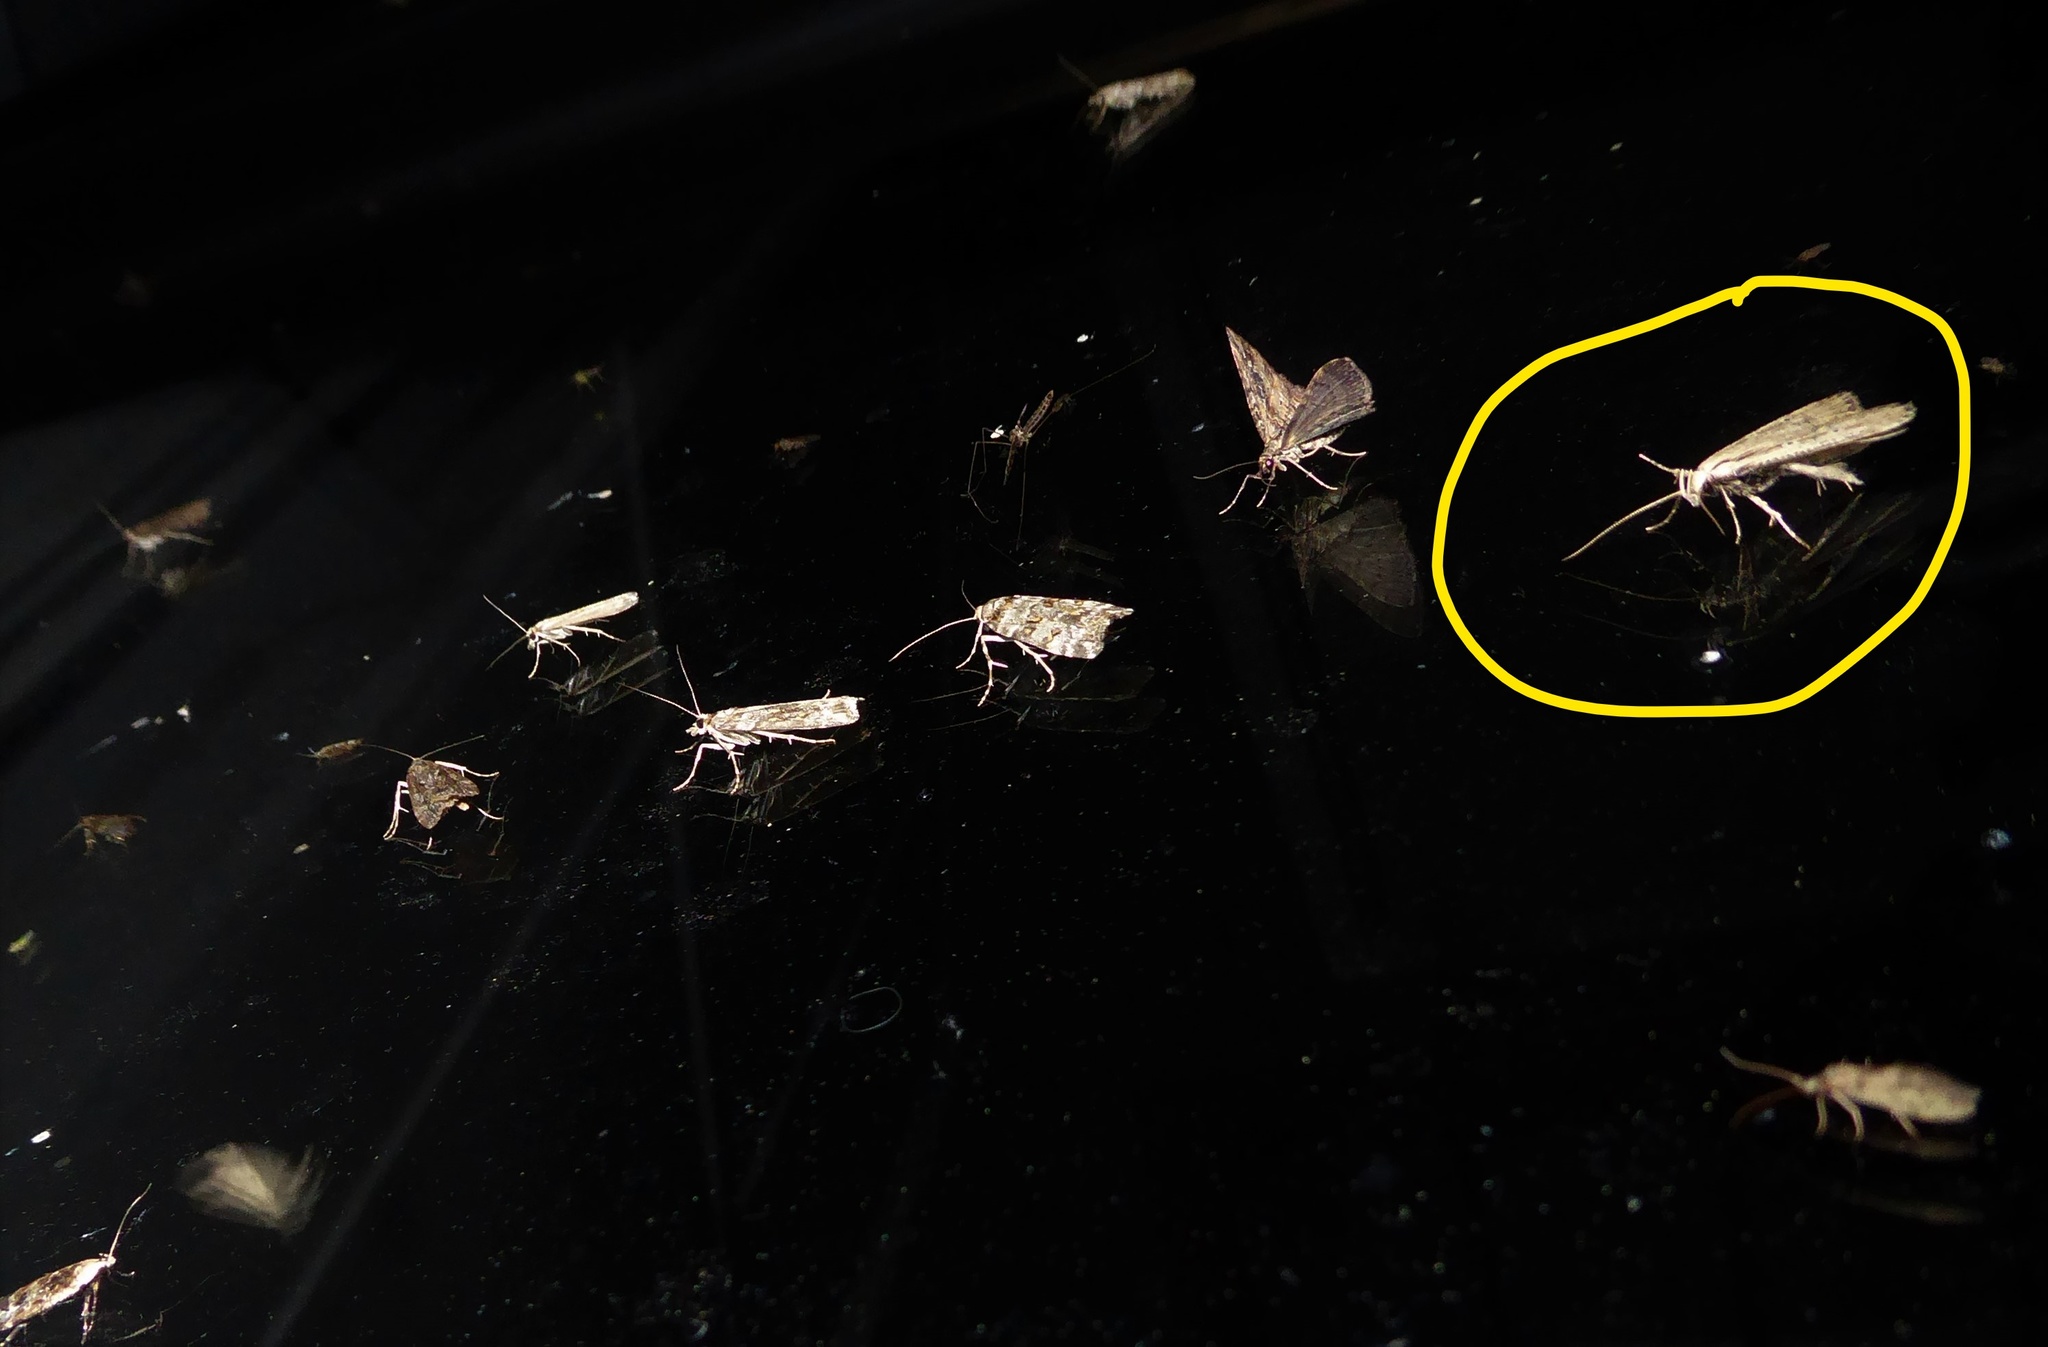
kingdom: Animalia
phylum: Arthropoda
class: Insecta
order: Lepidoptera
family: Gelechiidae
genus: Anisoplaca
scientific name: Anisoplaca ptyoptera
